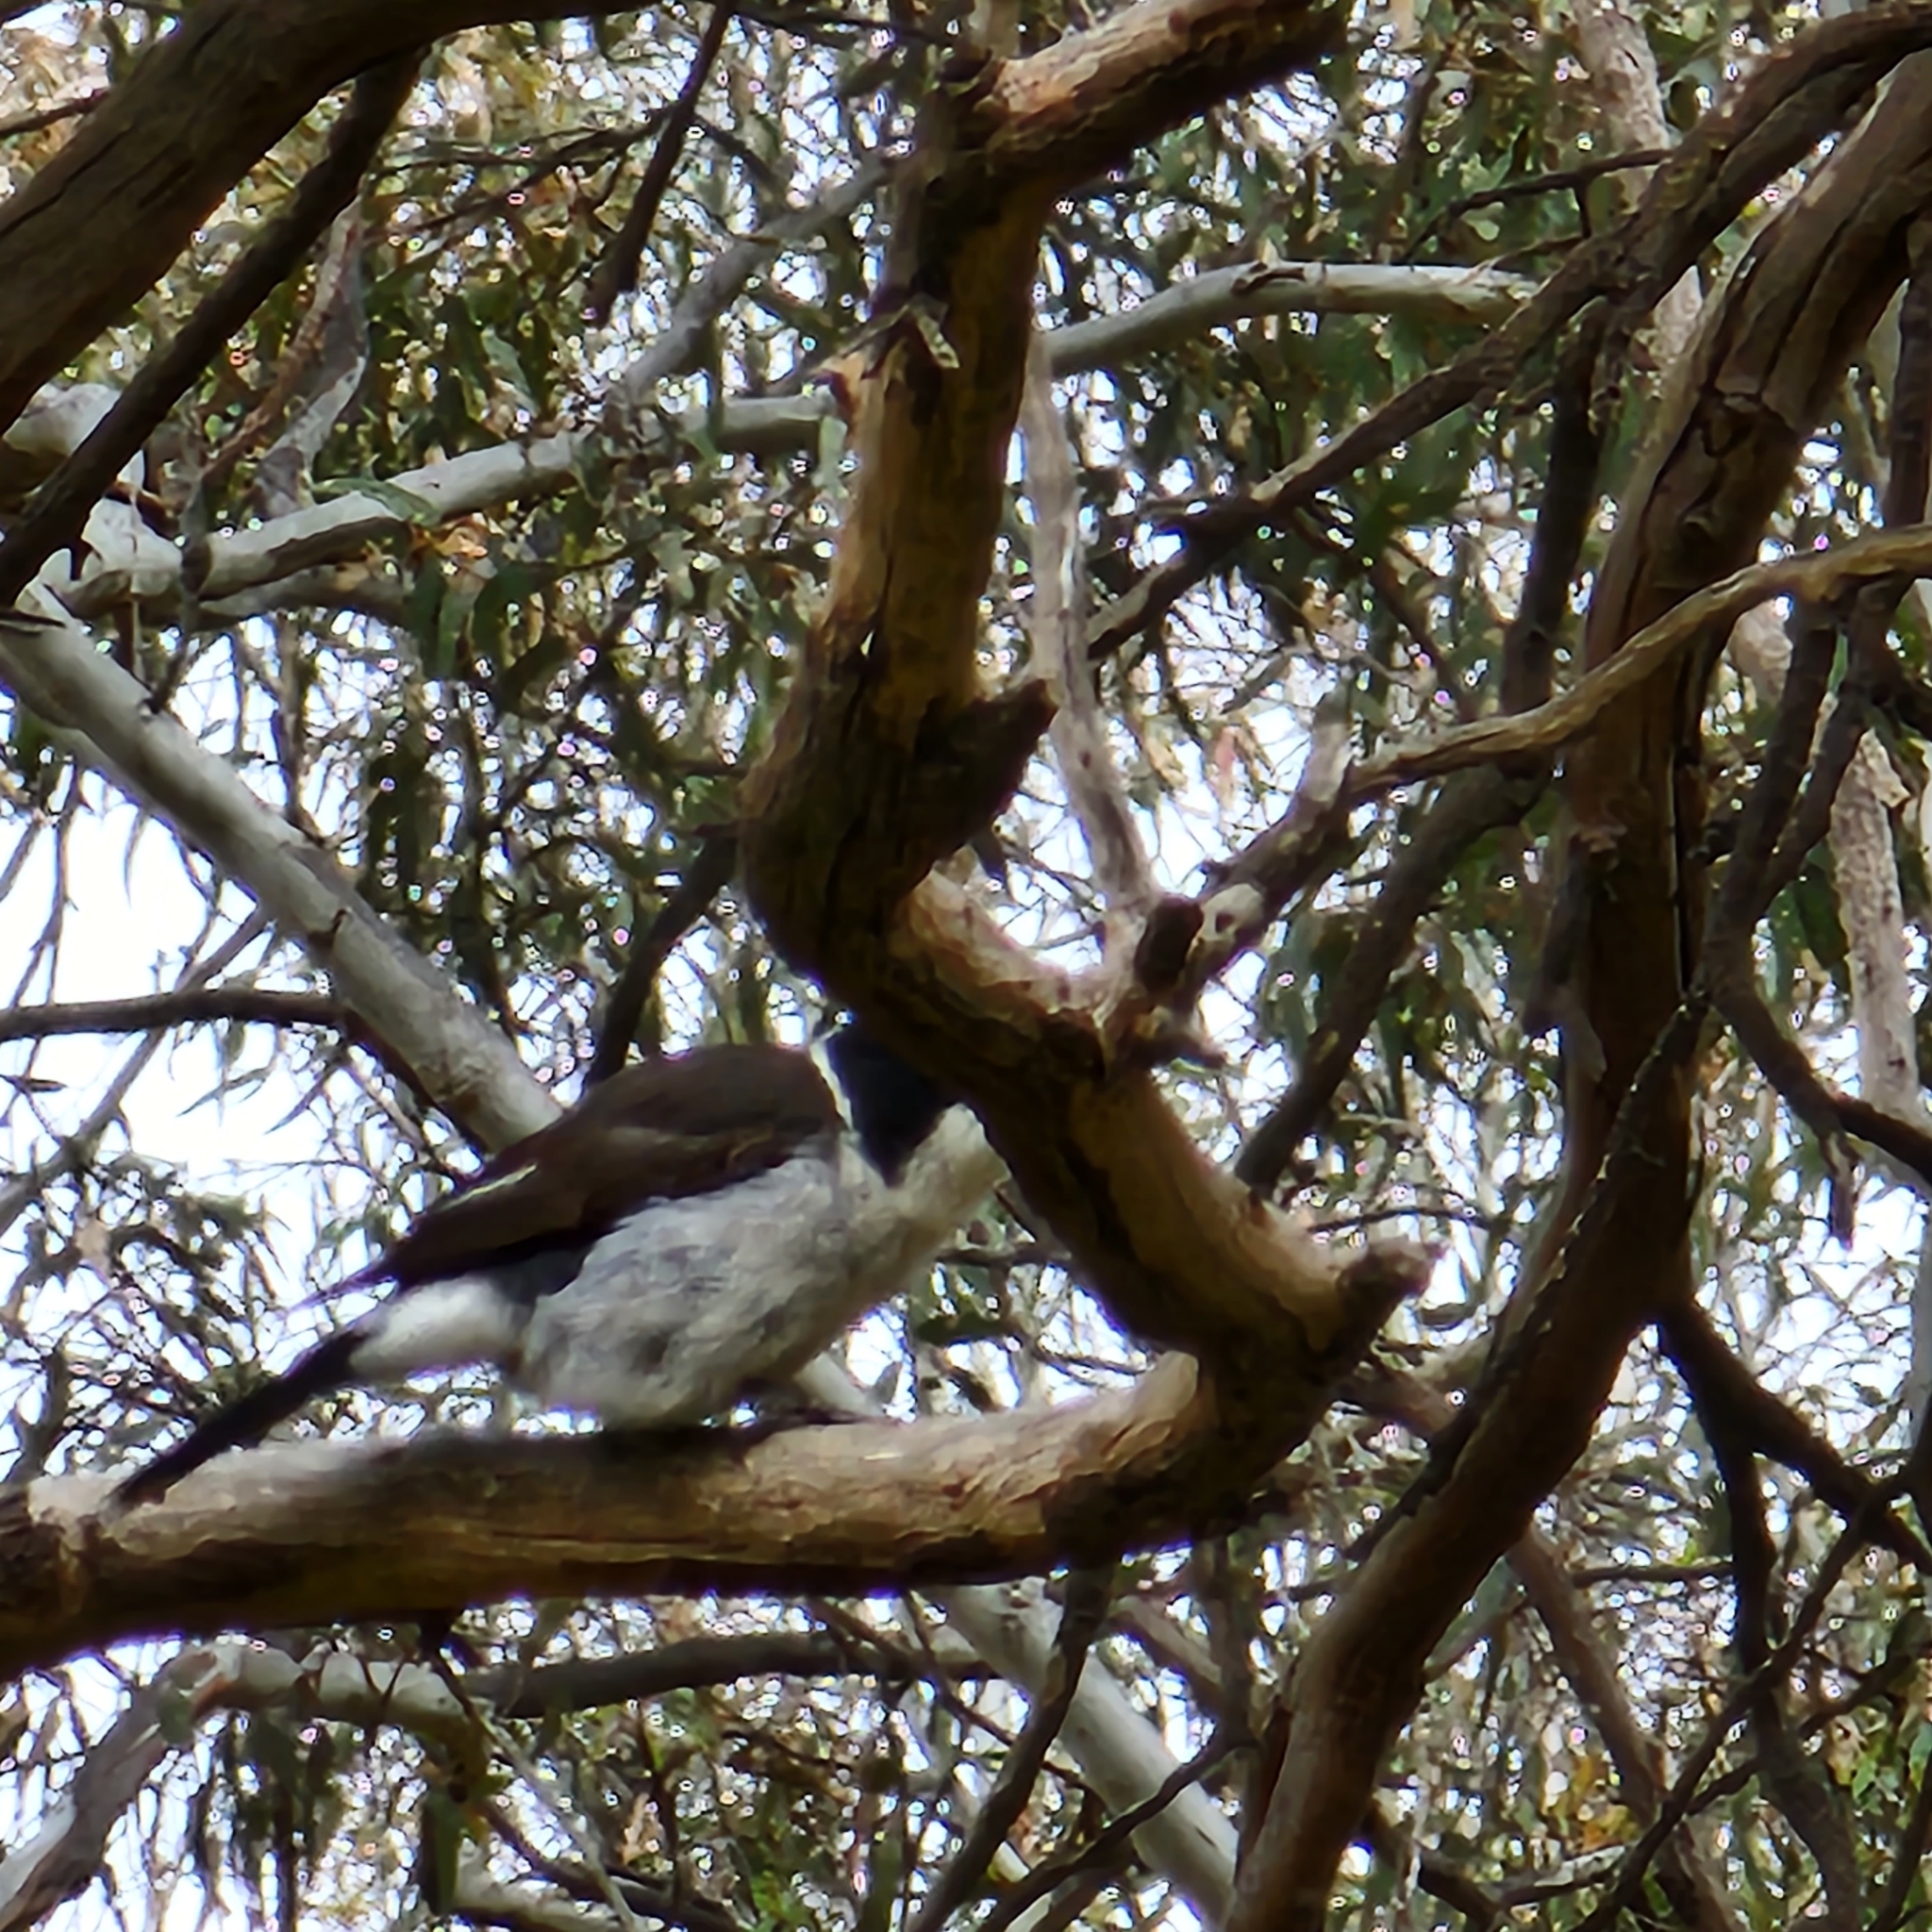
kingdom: Animalia
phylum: Chordata
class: Aves
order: Passeriformes
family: Cracticidae
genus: Cracticus
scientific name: Cracticus torquatus
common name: Grey butcherbird
